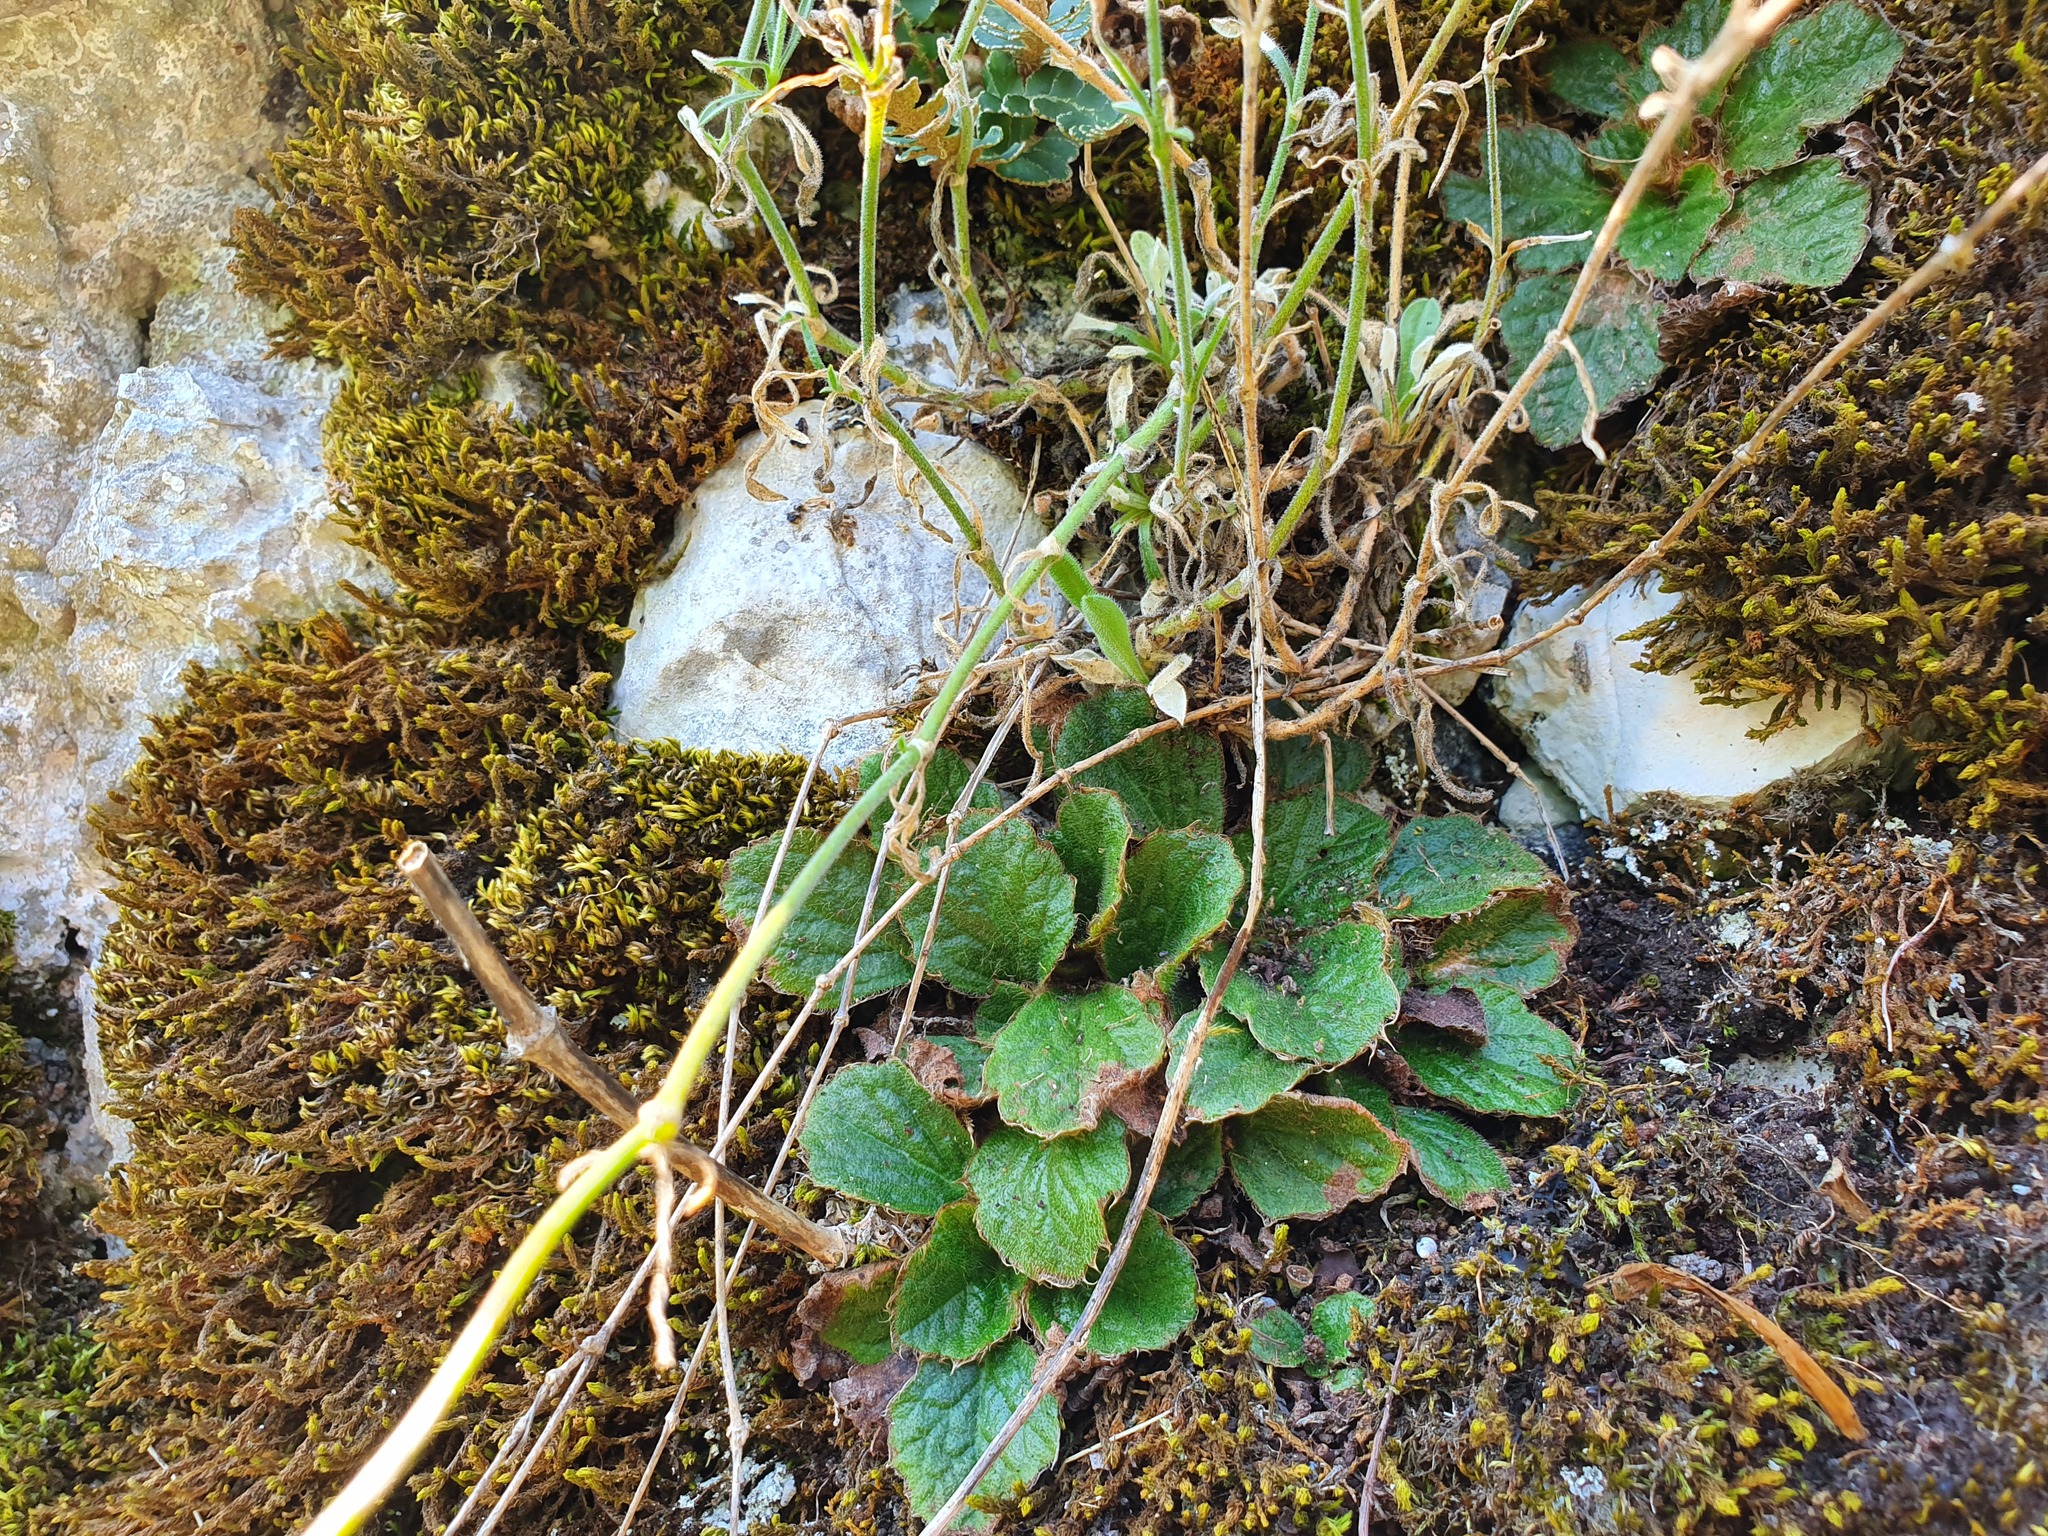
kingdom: Plantae
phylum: Tracheophyta
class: Magnoliopsida
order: Lamiales
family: Gesneriaceae
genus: Ramonda
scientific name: Ramonda serbica
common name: Serbian phoenix flower
